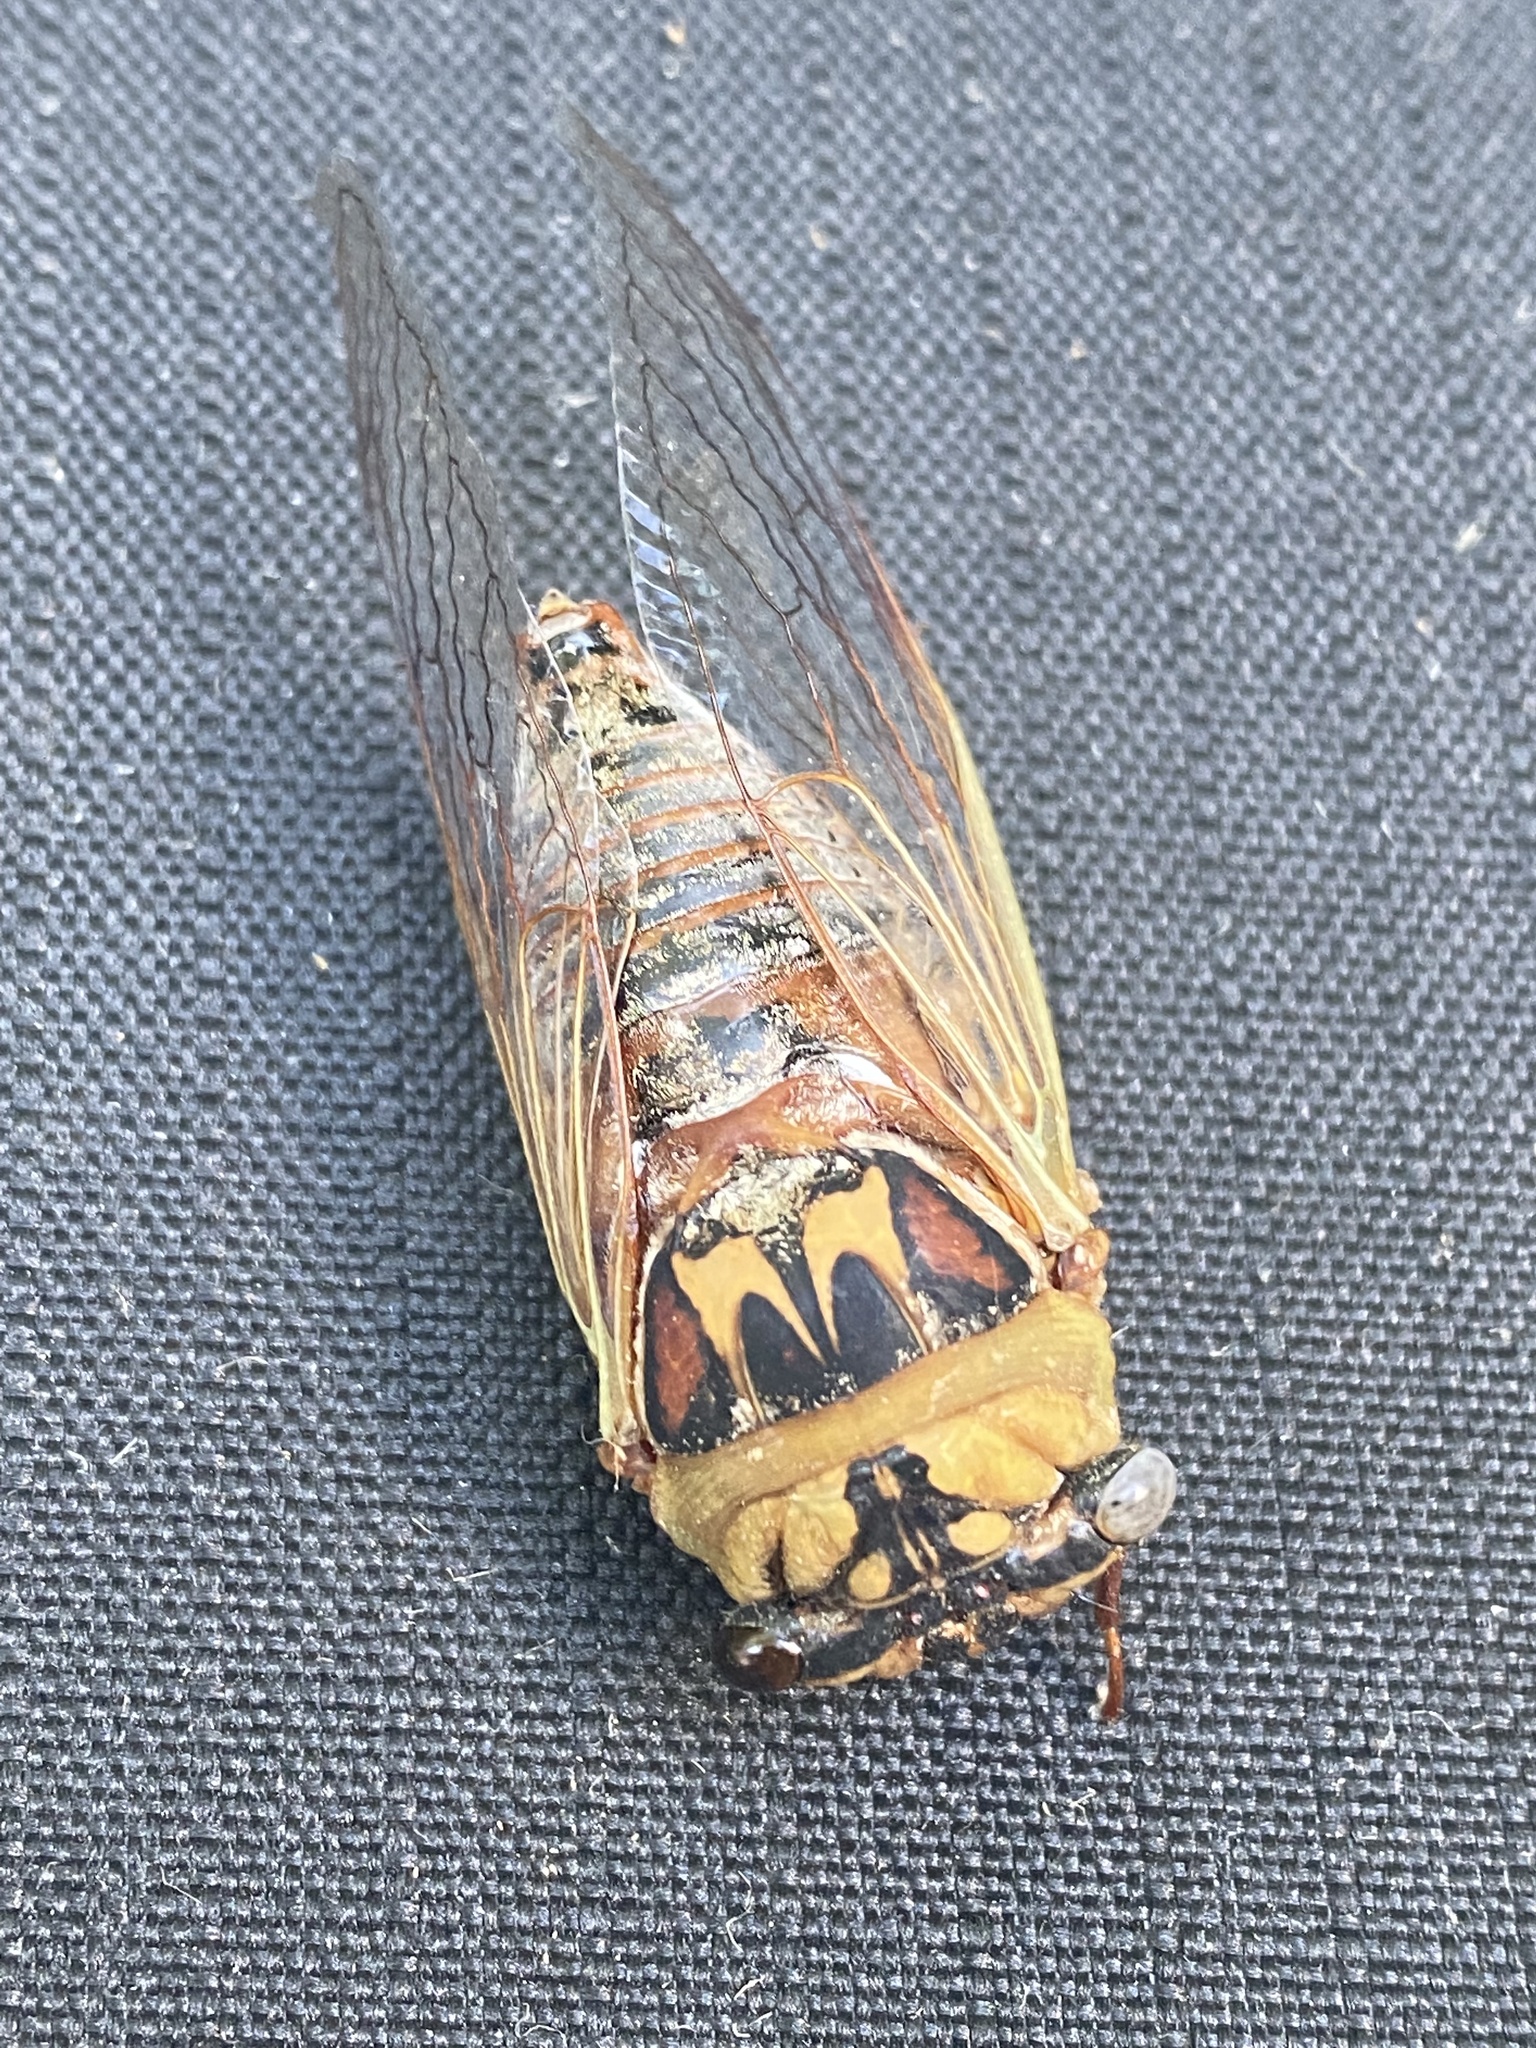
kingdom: Animalia
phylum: Arthropoda
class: Insecta
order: Hemiptera
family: Cicadidae
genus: Megatibicen
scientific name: Megatibicen pronotalis
